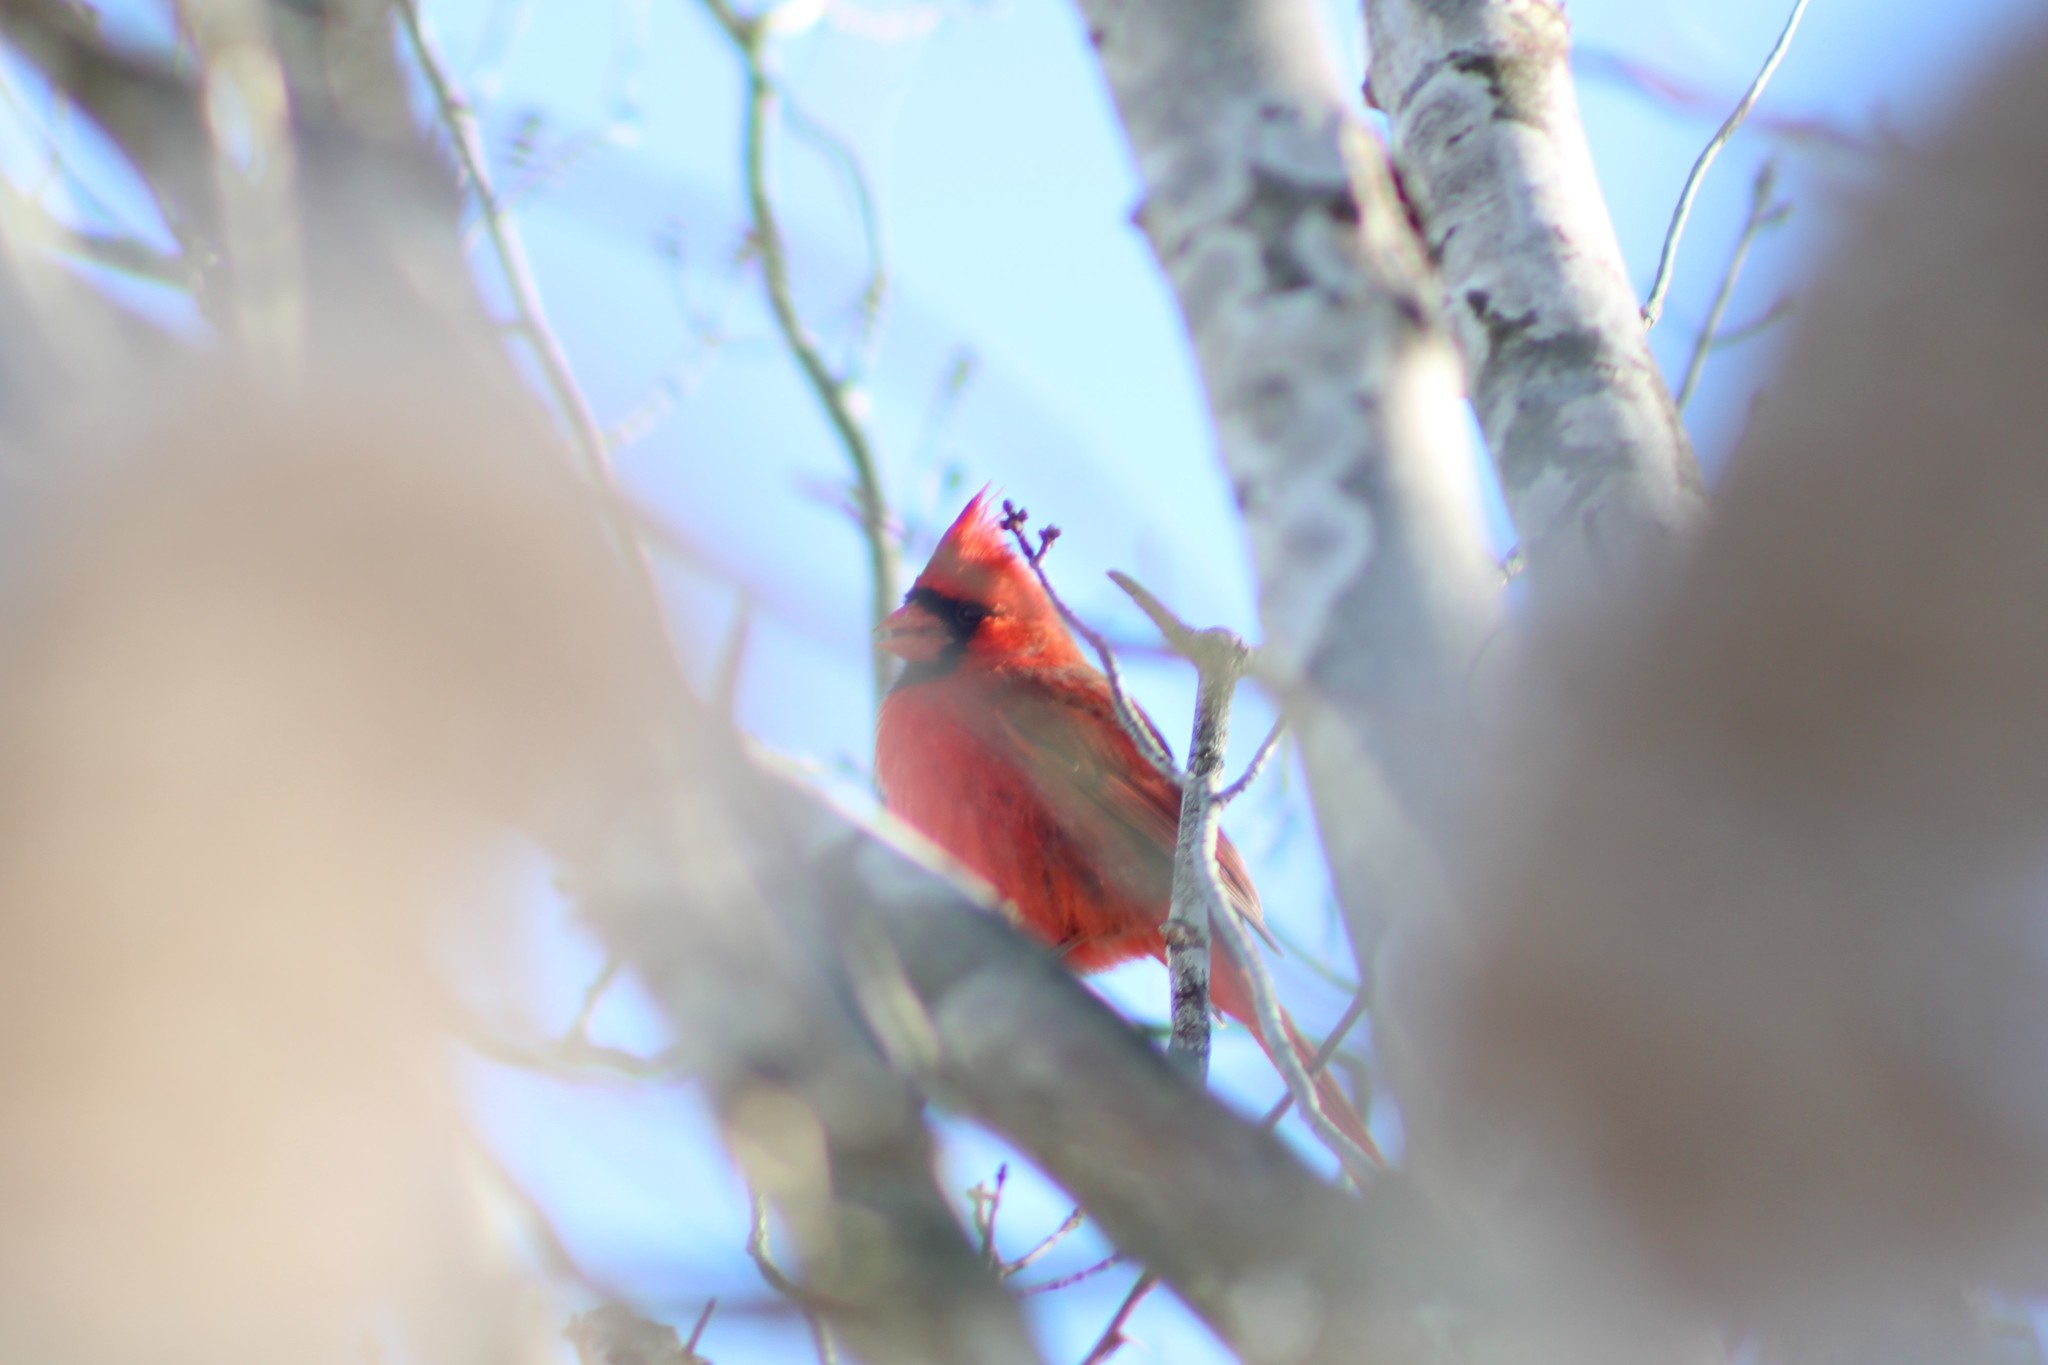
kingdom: Animalia
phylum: Chordata
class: Aves
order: Passeriformes
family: Cardinalidae
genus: Cardinalis
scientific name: Cardinalis cardinalis
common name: Northern cardinal
